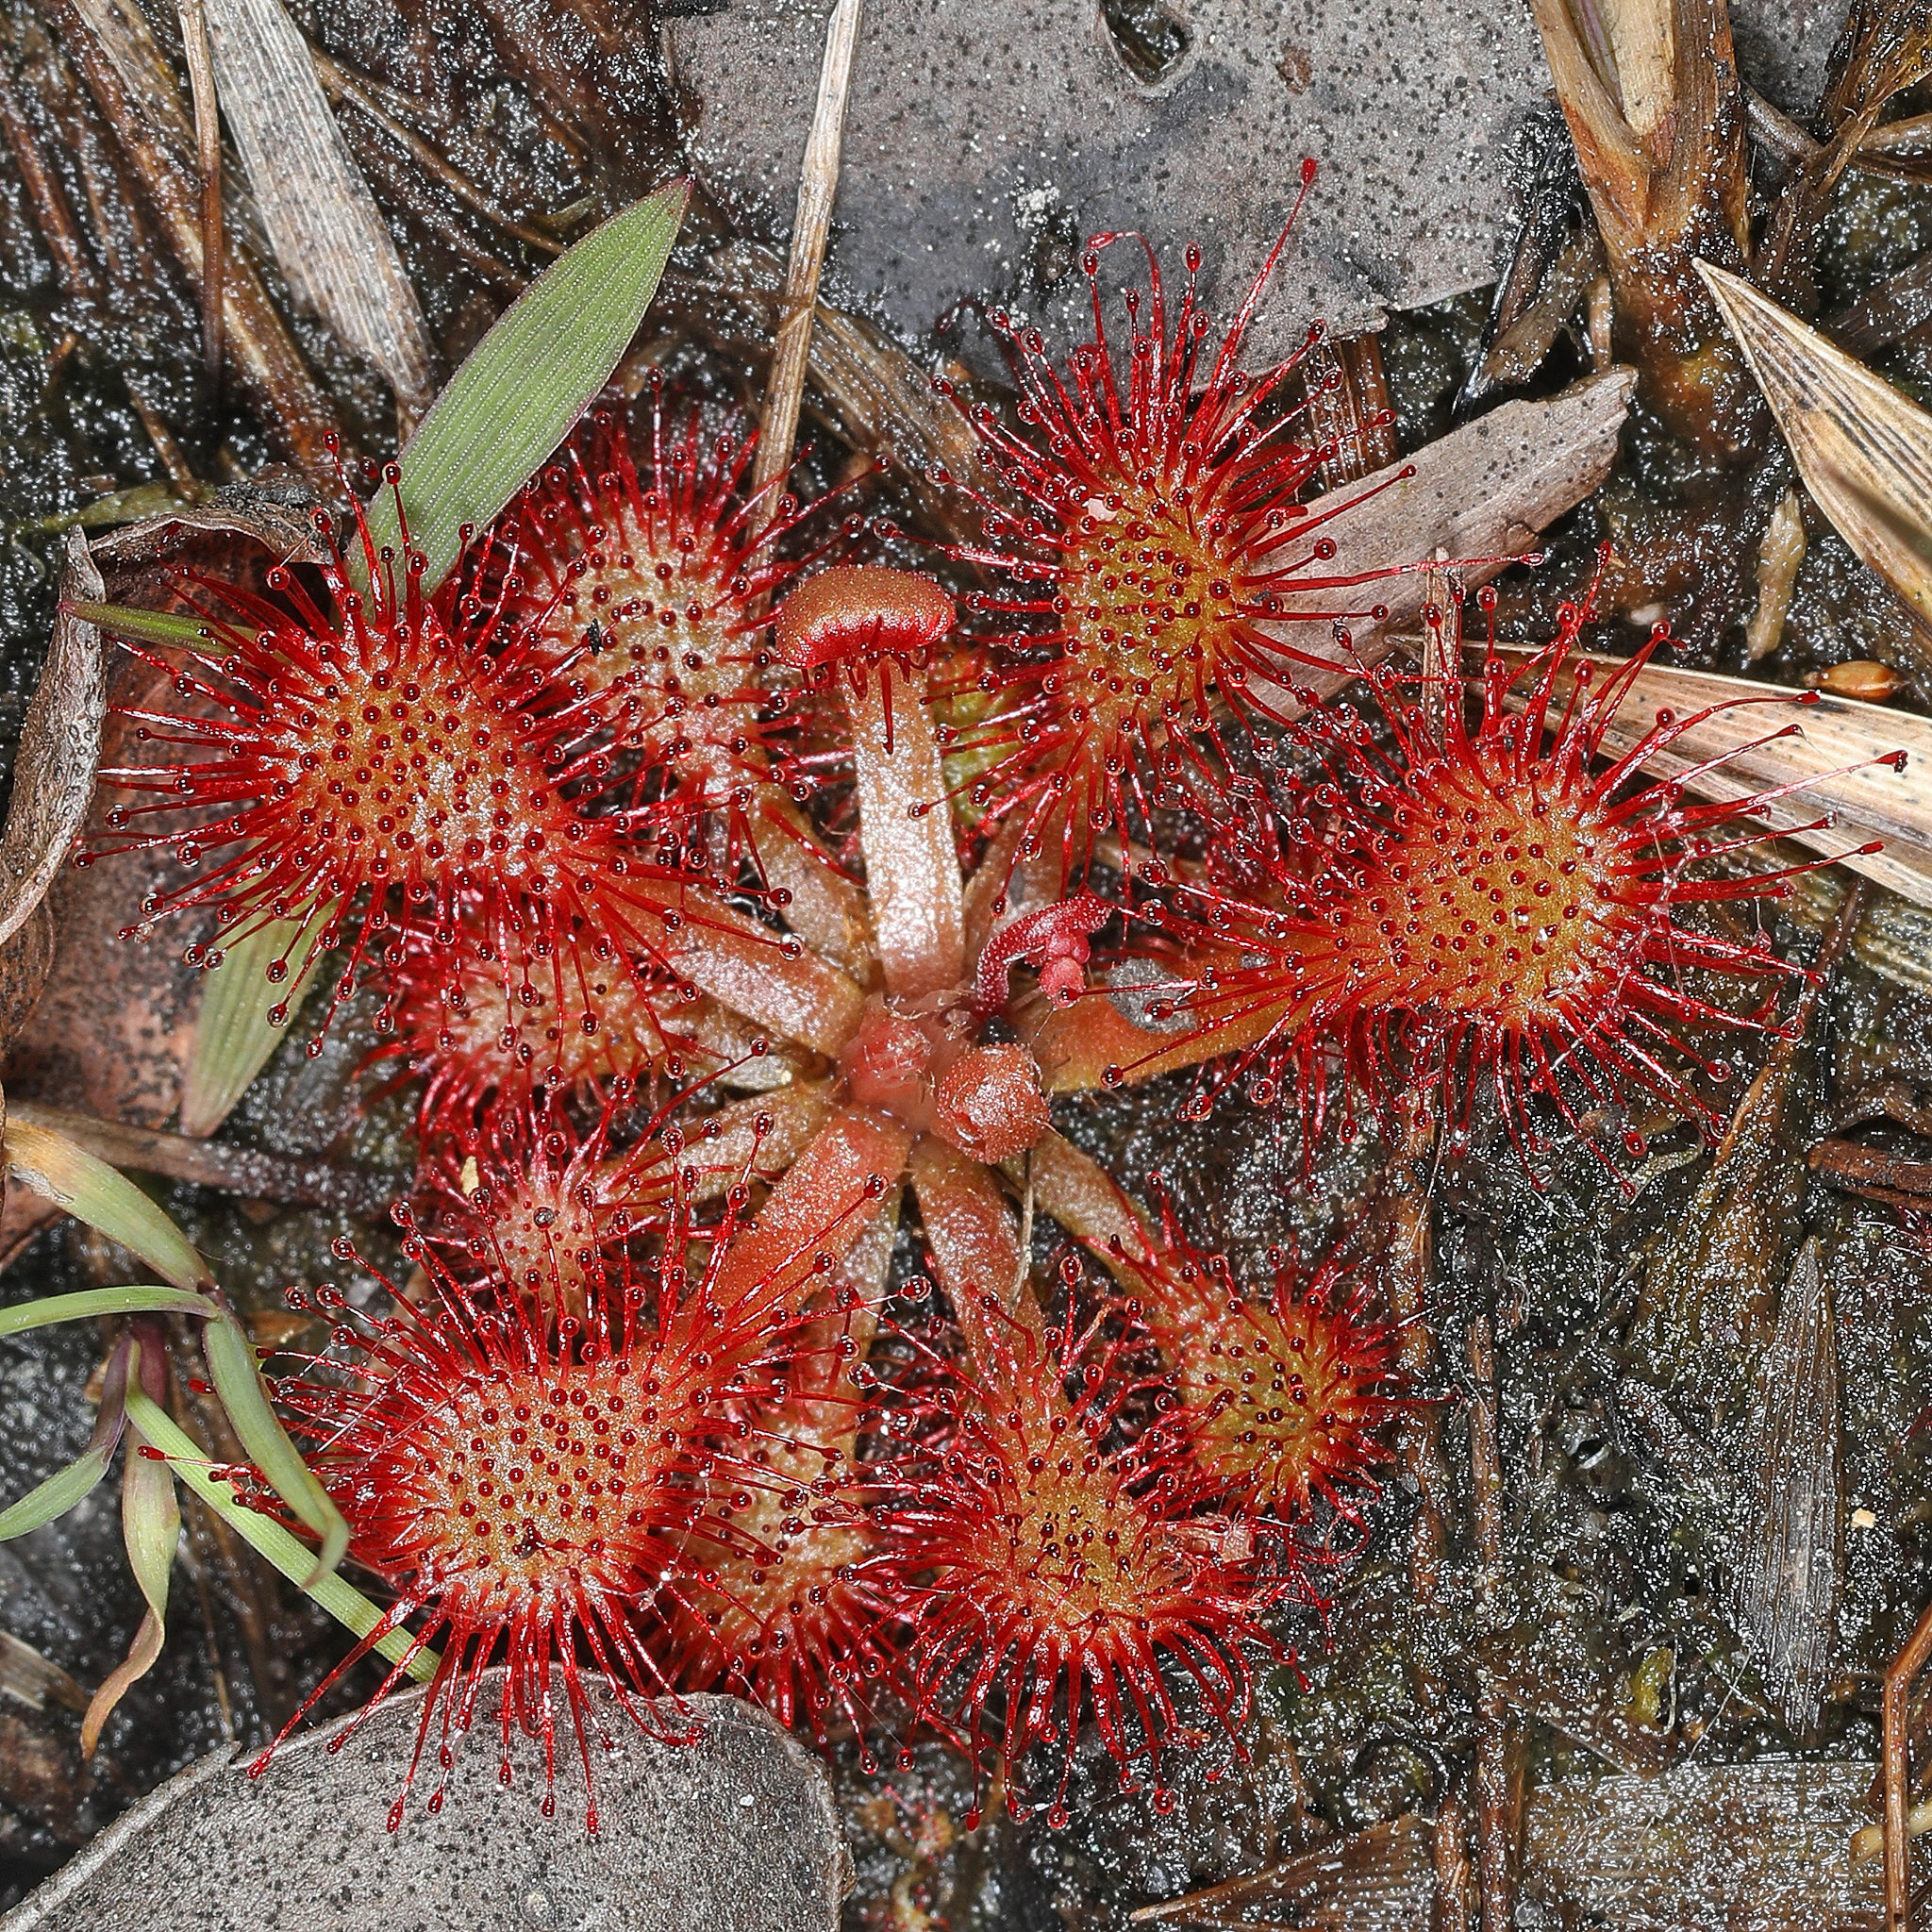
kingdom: Plantae
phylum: Tracheophyta
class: Magnoliopsida
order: Caryophyllales
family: Droseraceae
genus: Drosera
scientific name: Drosera capillaris
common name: Pink sundew
